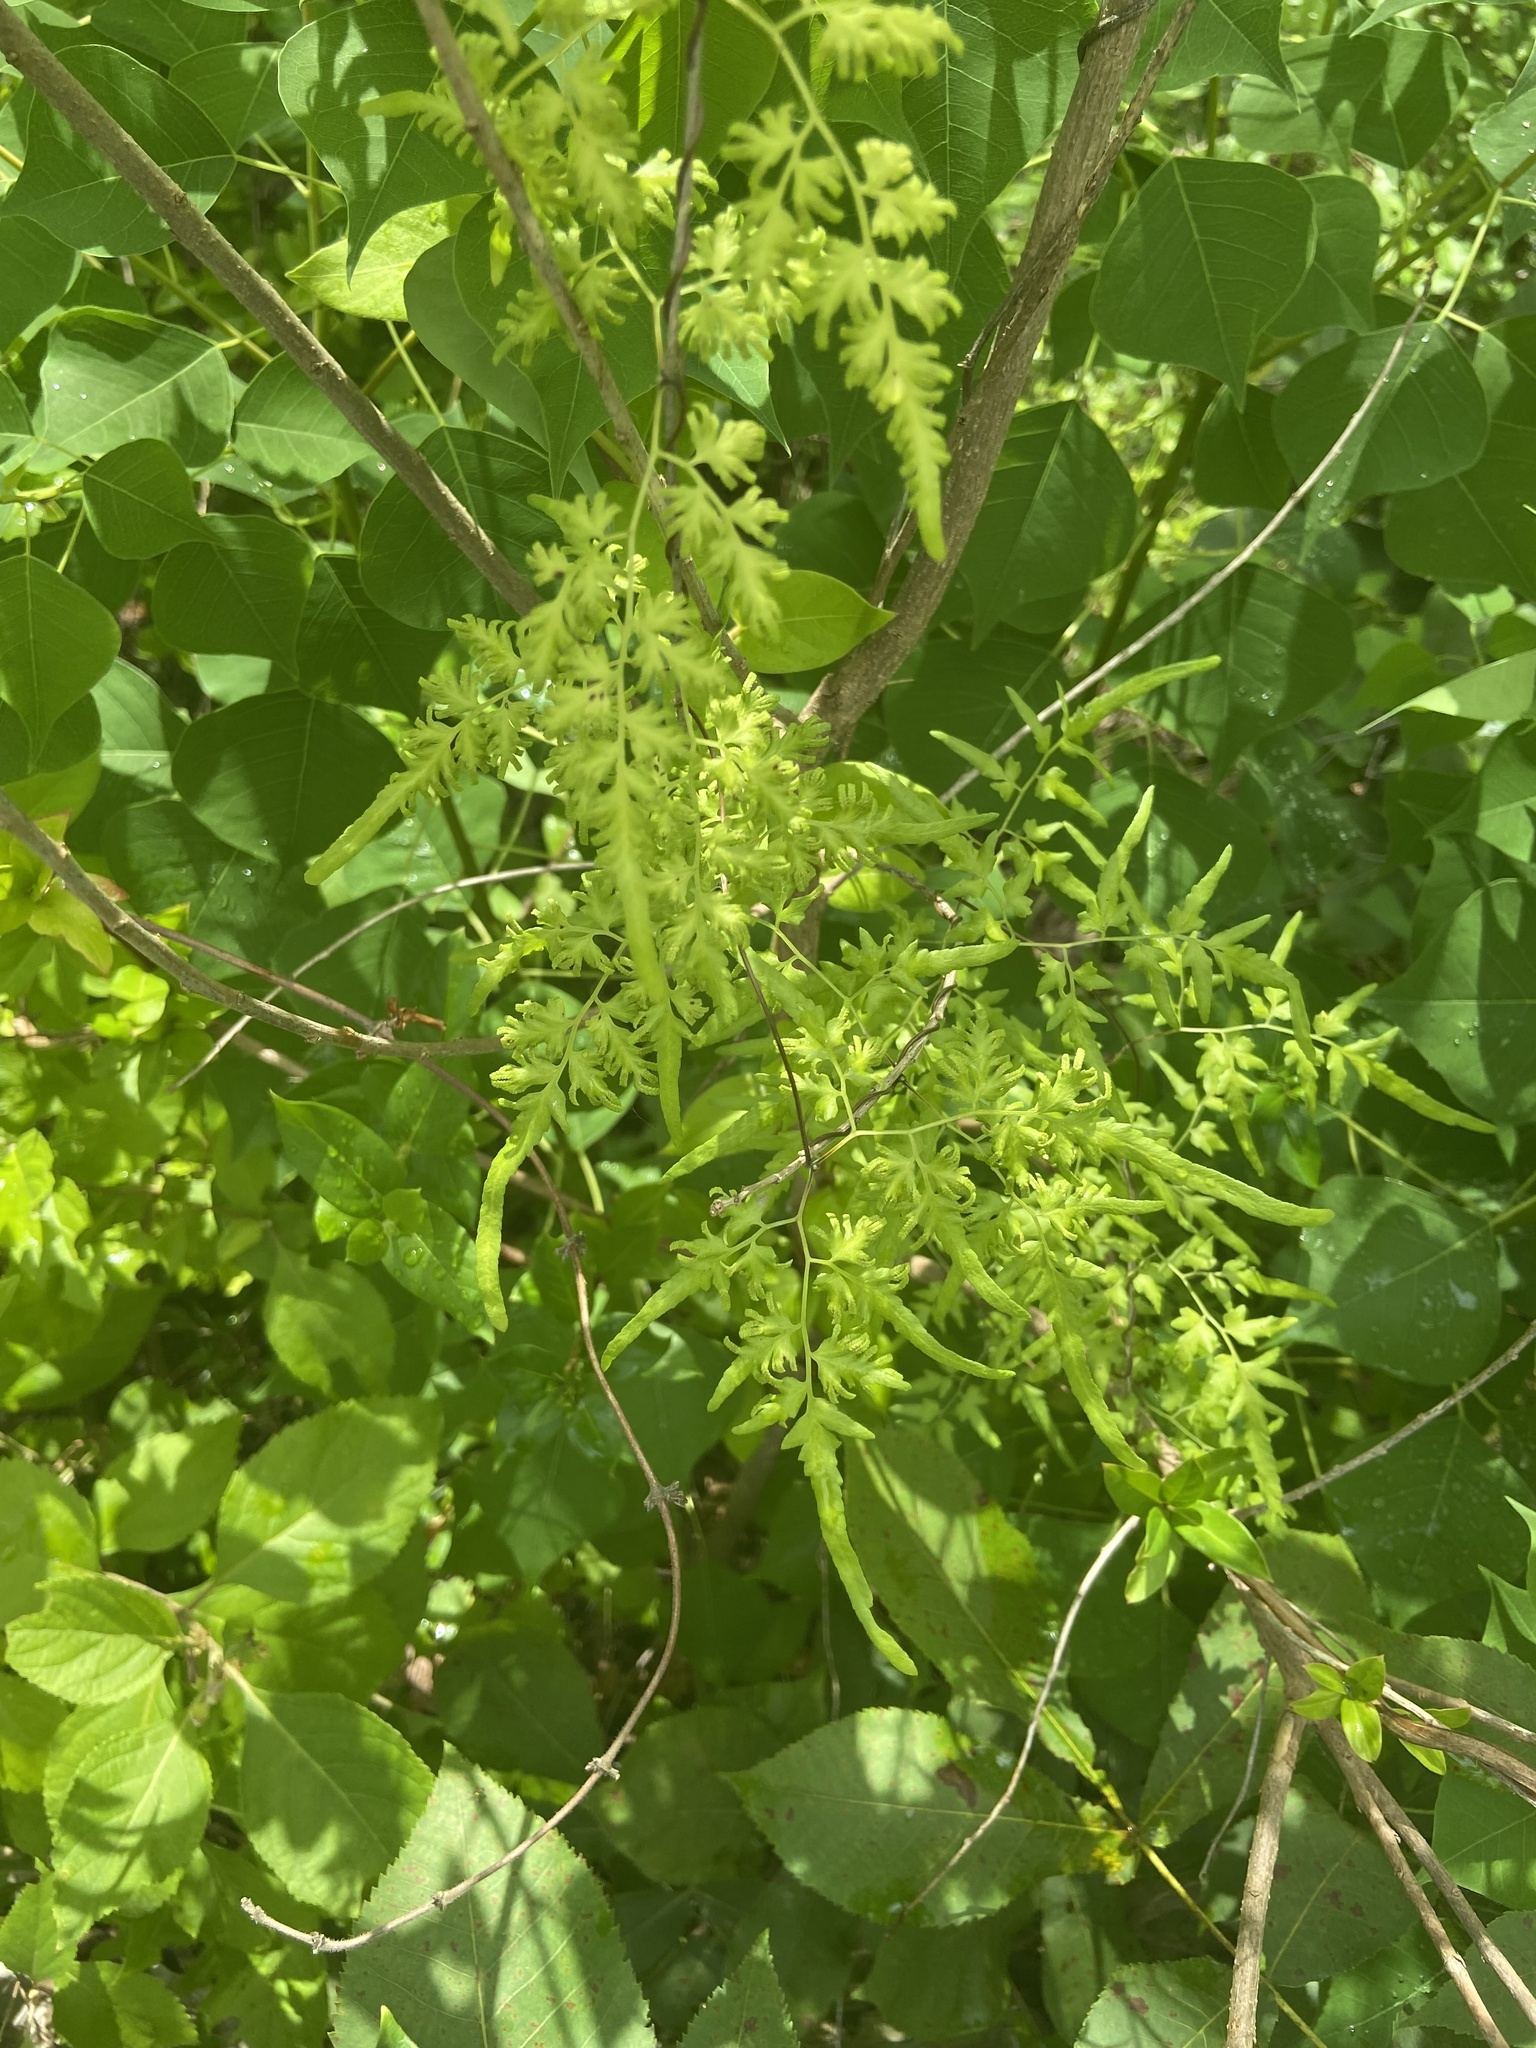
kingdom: Plantae
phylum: Tracheophyta
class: Polypodiopsida
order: Schizaeales
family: Lygodiaceae
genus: Lygodium
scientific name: Lygodium japonicum
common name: Japanese climbing fern
